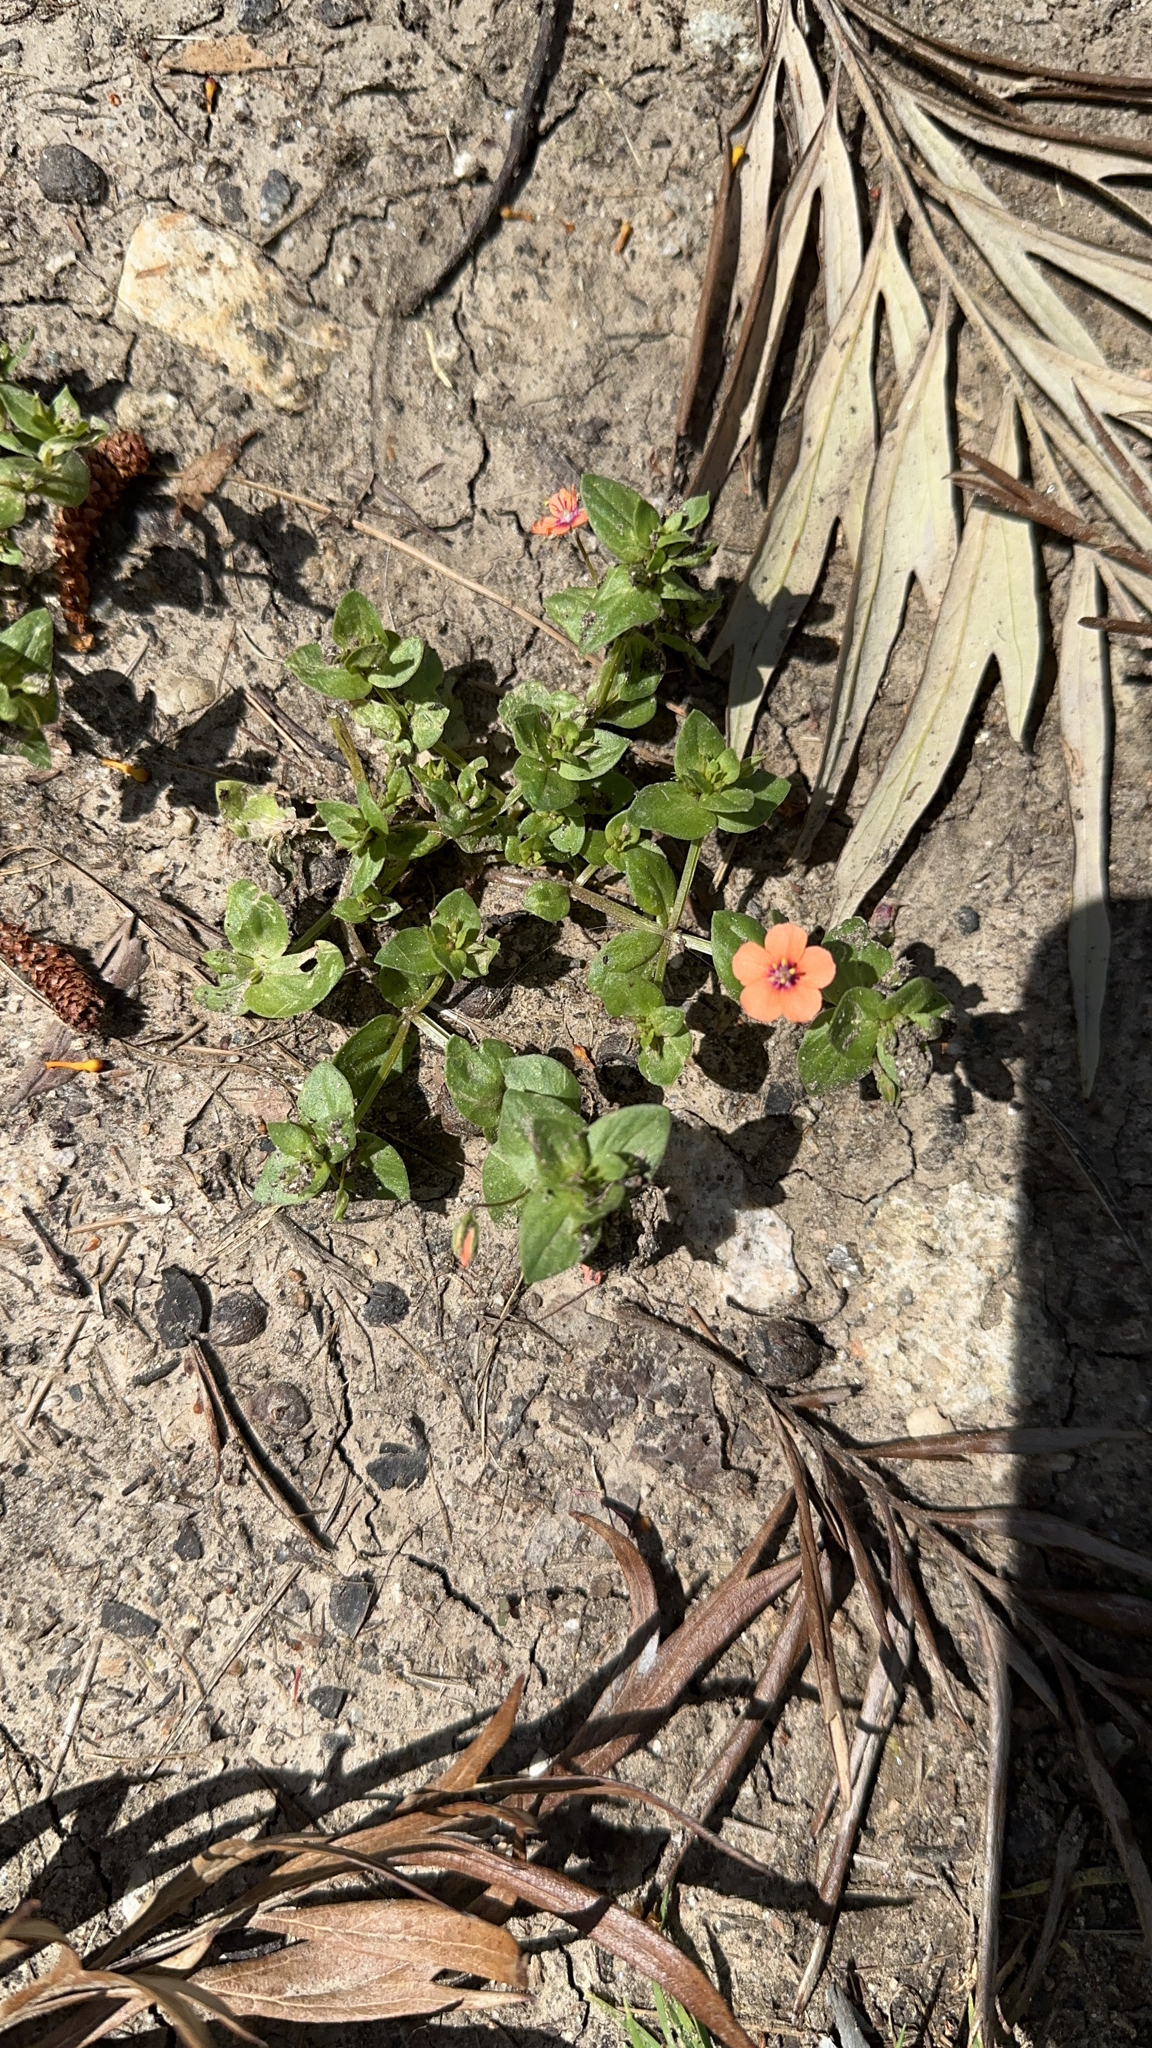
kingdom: Plantae
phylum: Tracheophyta
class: Magnoliopsida
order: Ericales
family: Primulaceae
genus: Lysimachia
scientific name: Lysimachia arvensis
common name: Scarlet pimpernel
